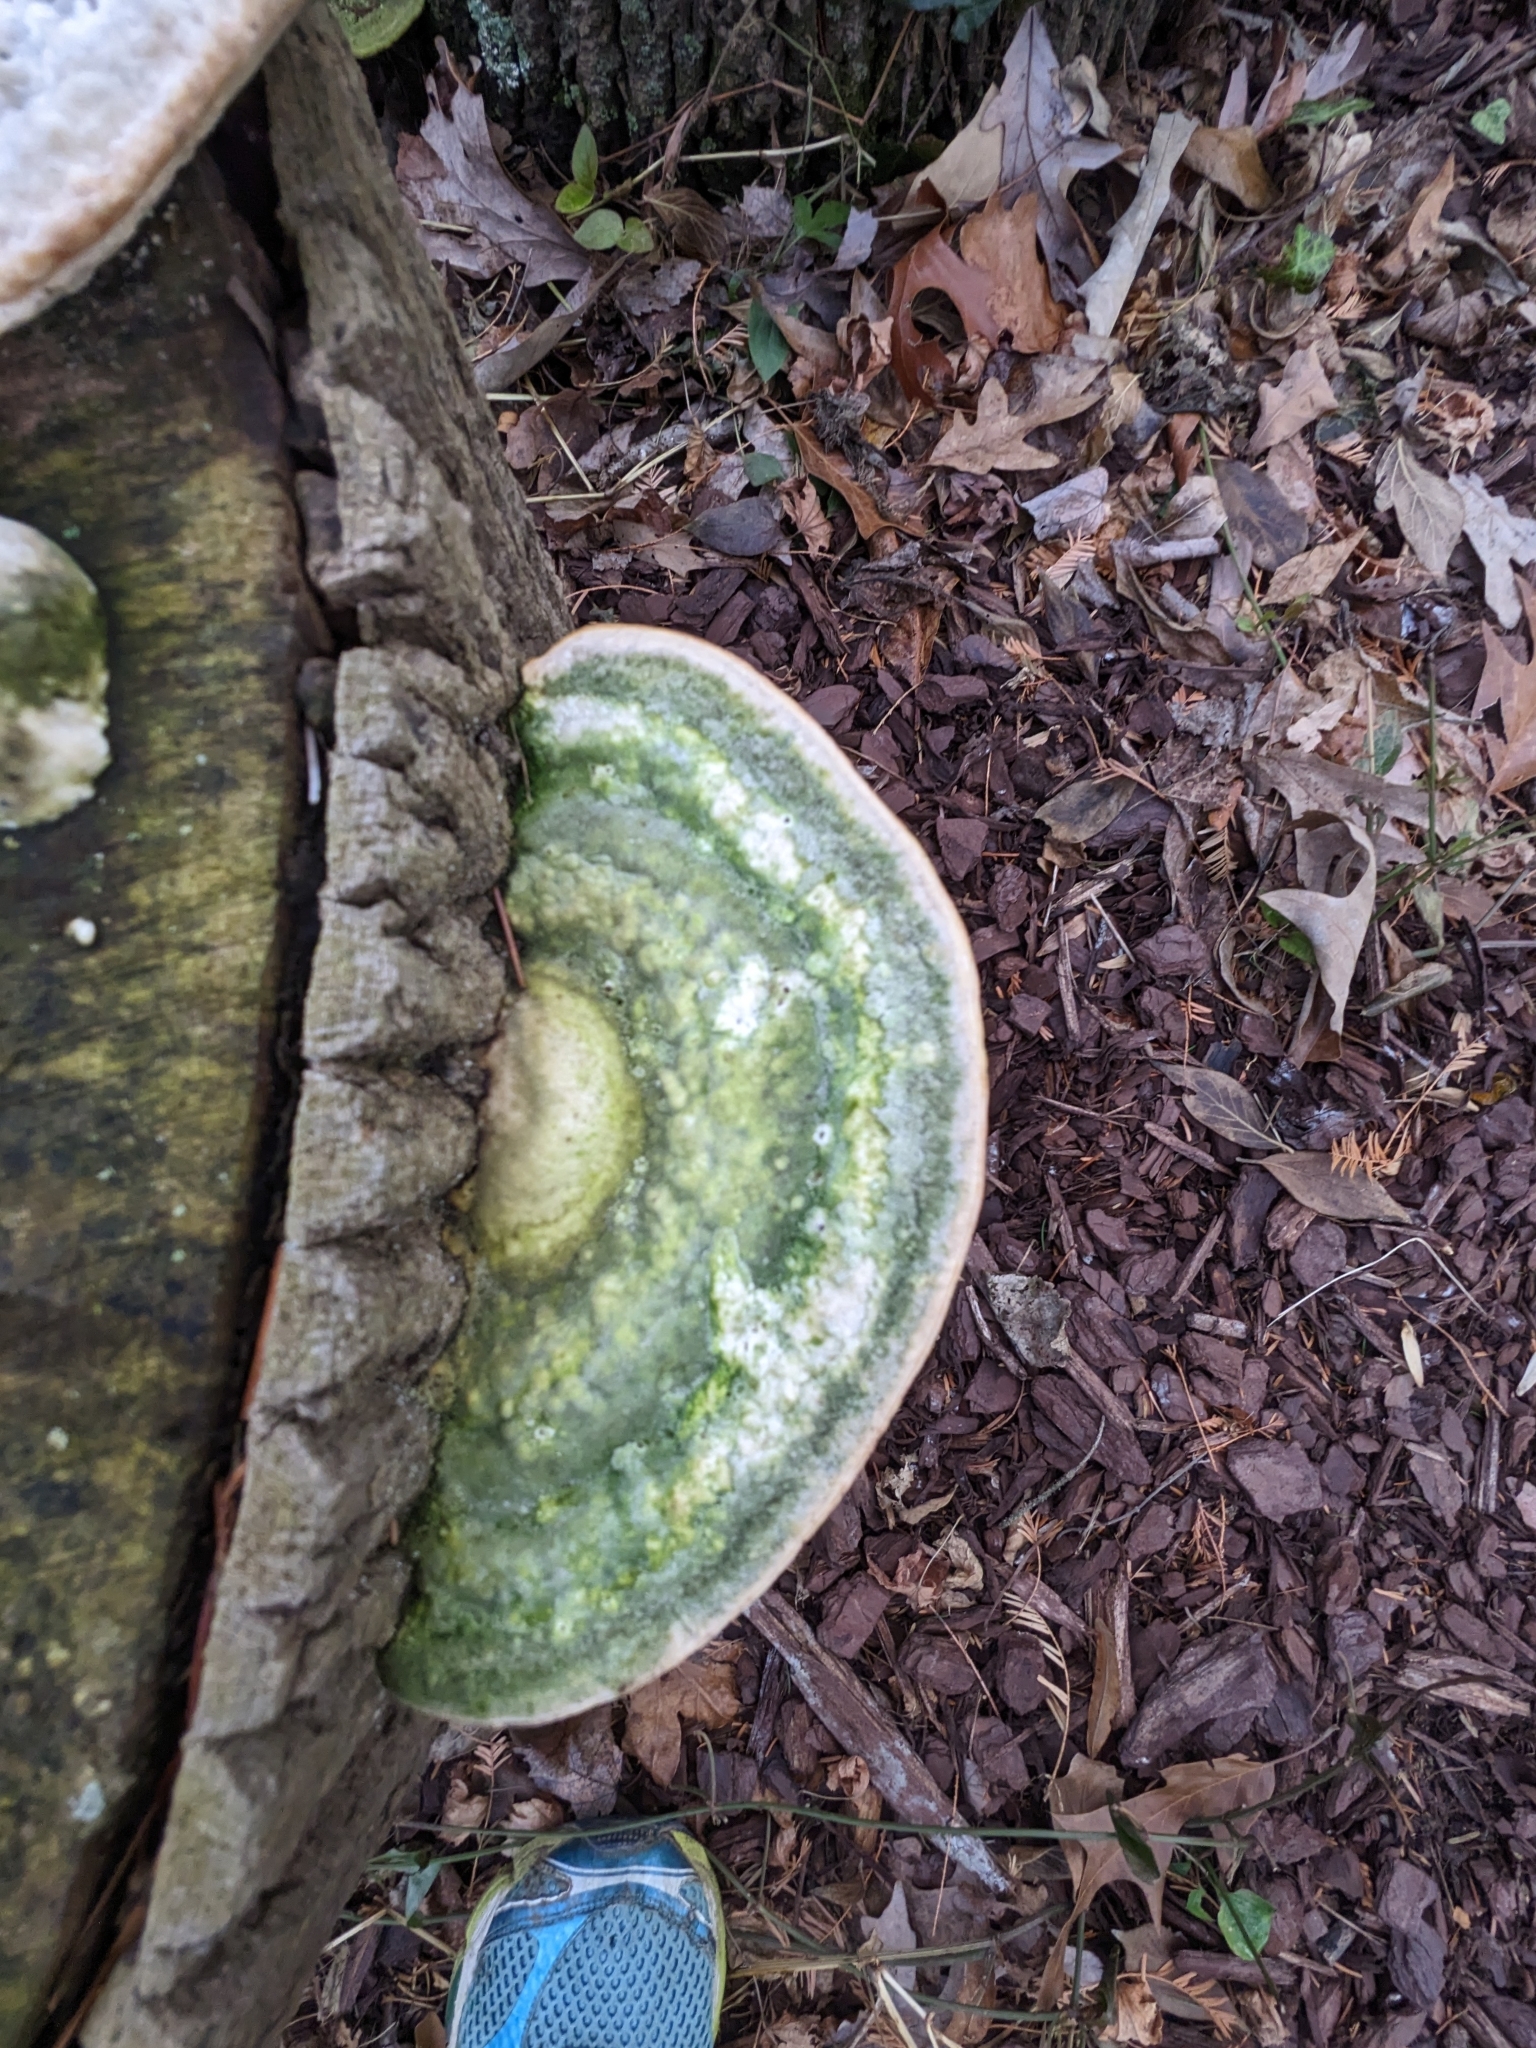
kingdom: Fungi
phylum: Basidiomycota
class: Agaricomycetes
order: Polyporales
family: Polyporaceae
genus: Trametes
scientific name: Trametes gibbosa
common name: Lumpy bracket
